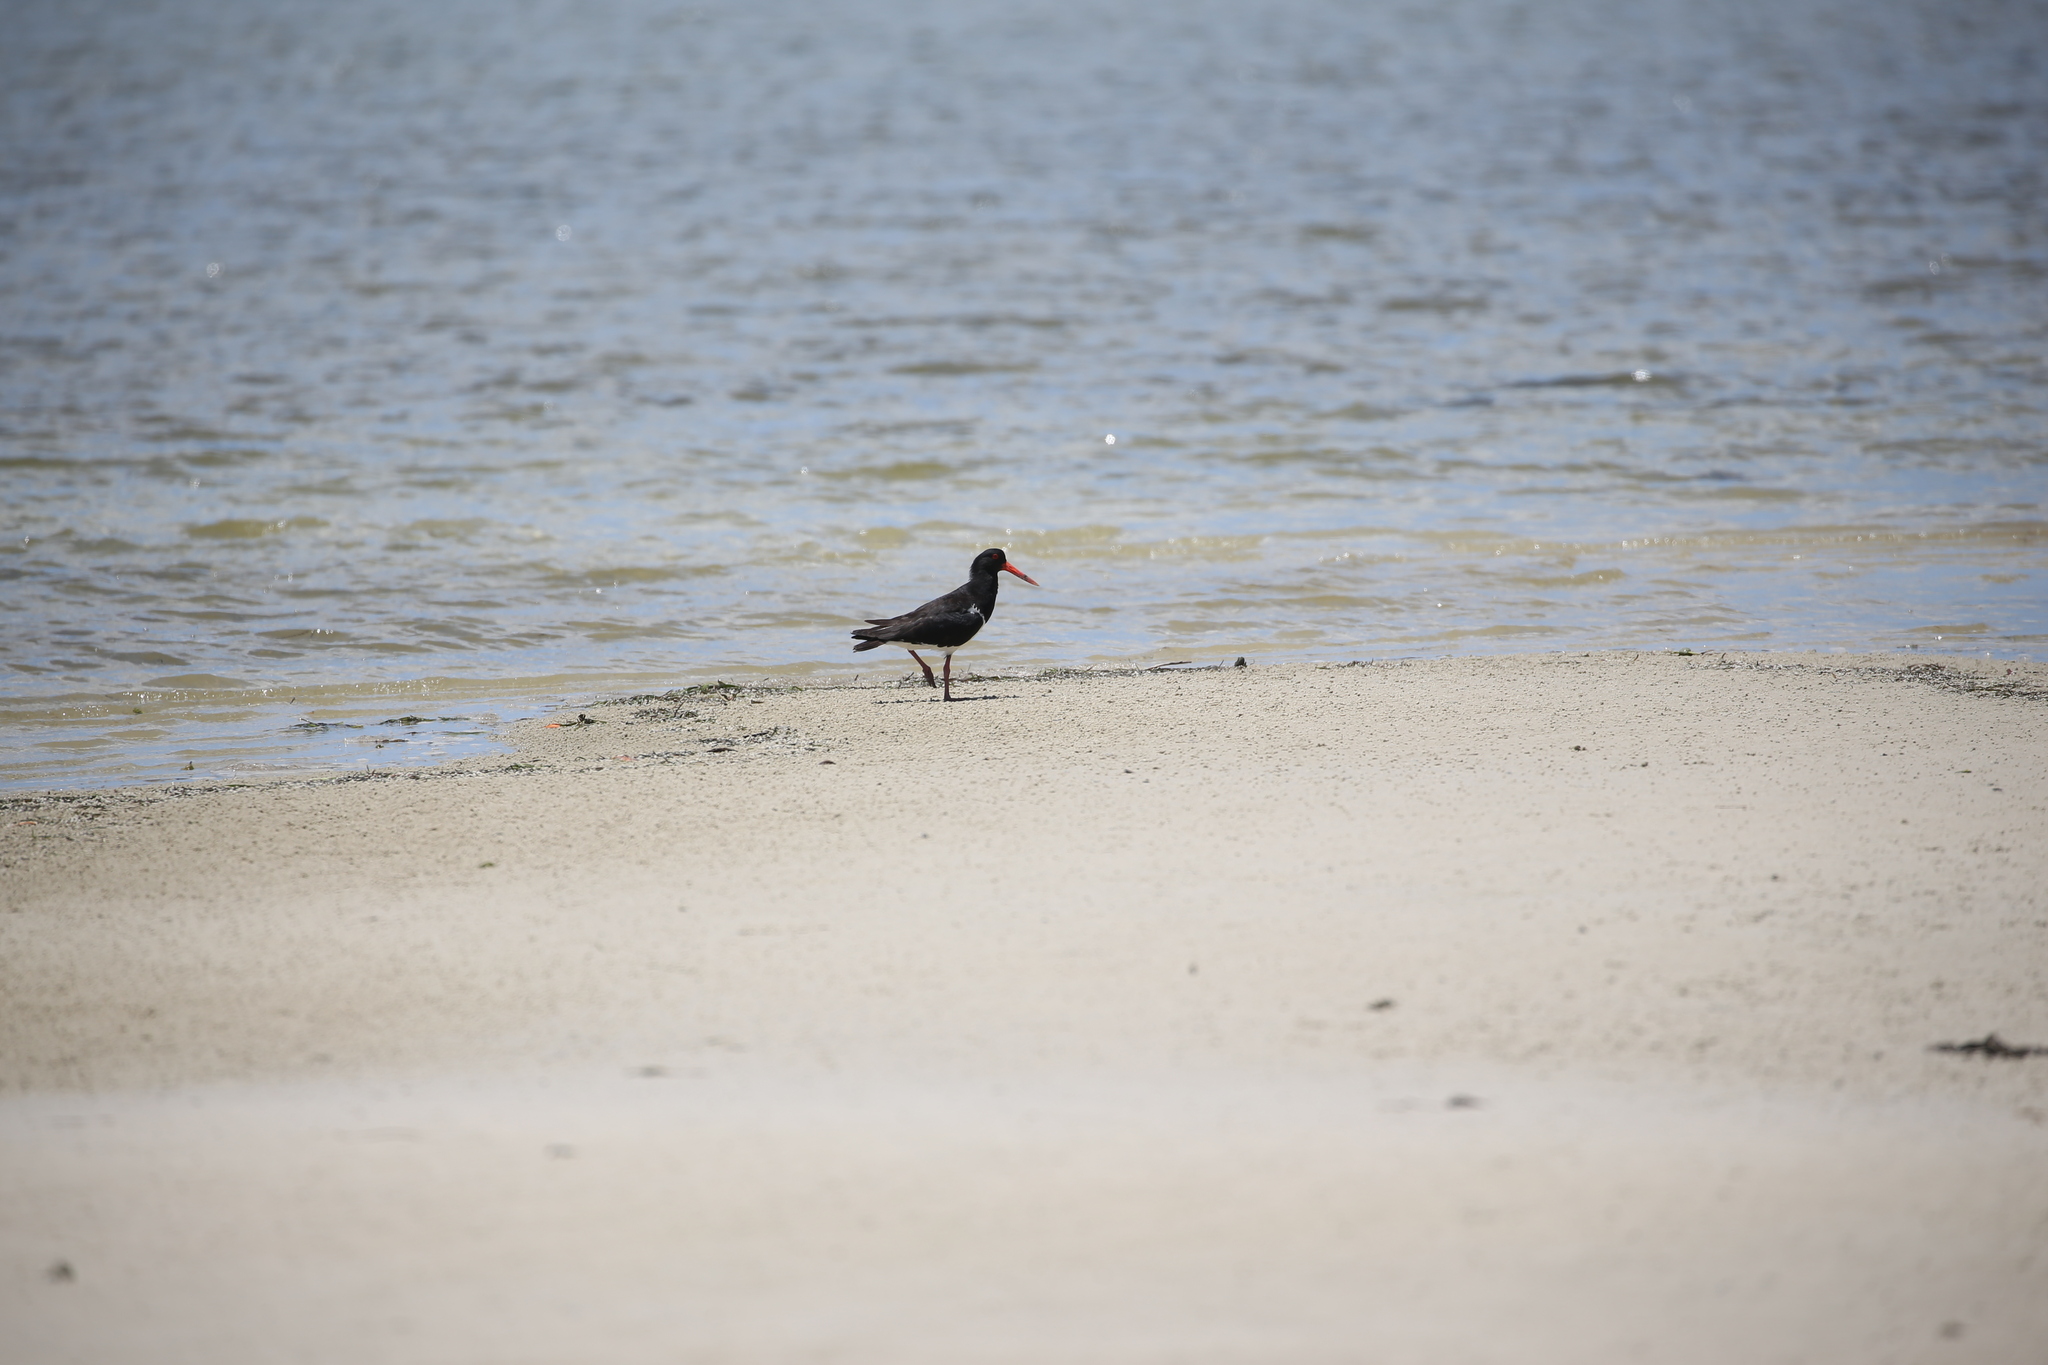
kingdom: Animalia
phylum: Chordata
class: Aves
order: Charadriiformes
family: Haematopodidae
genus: Haematopus
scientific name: Haematopus longirostris
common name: Pied oystercatcher
